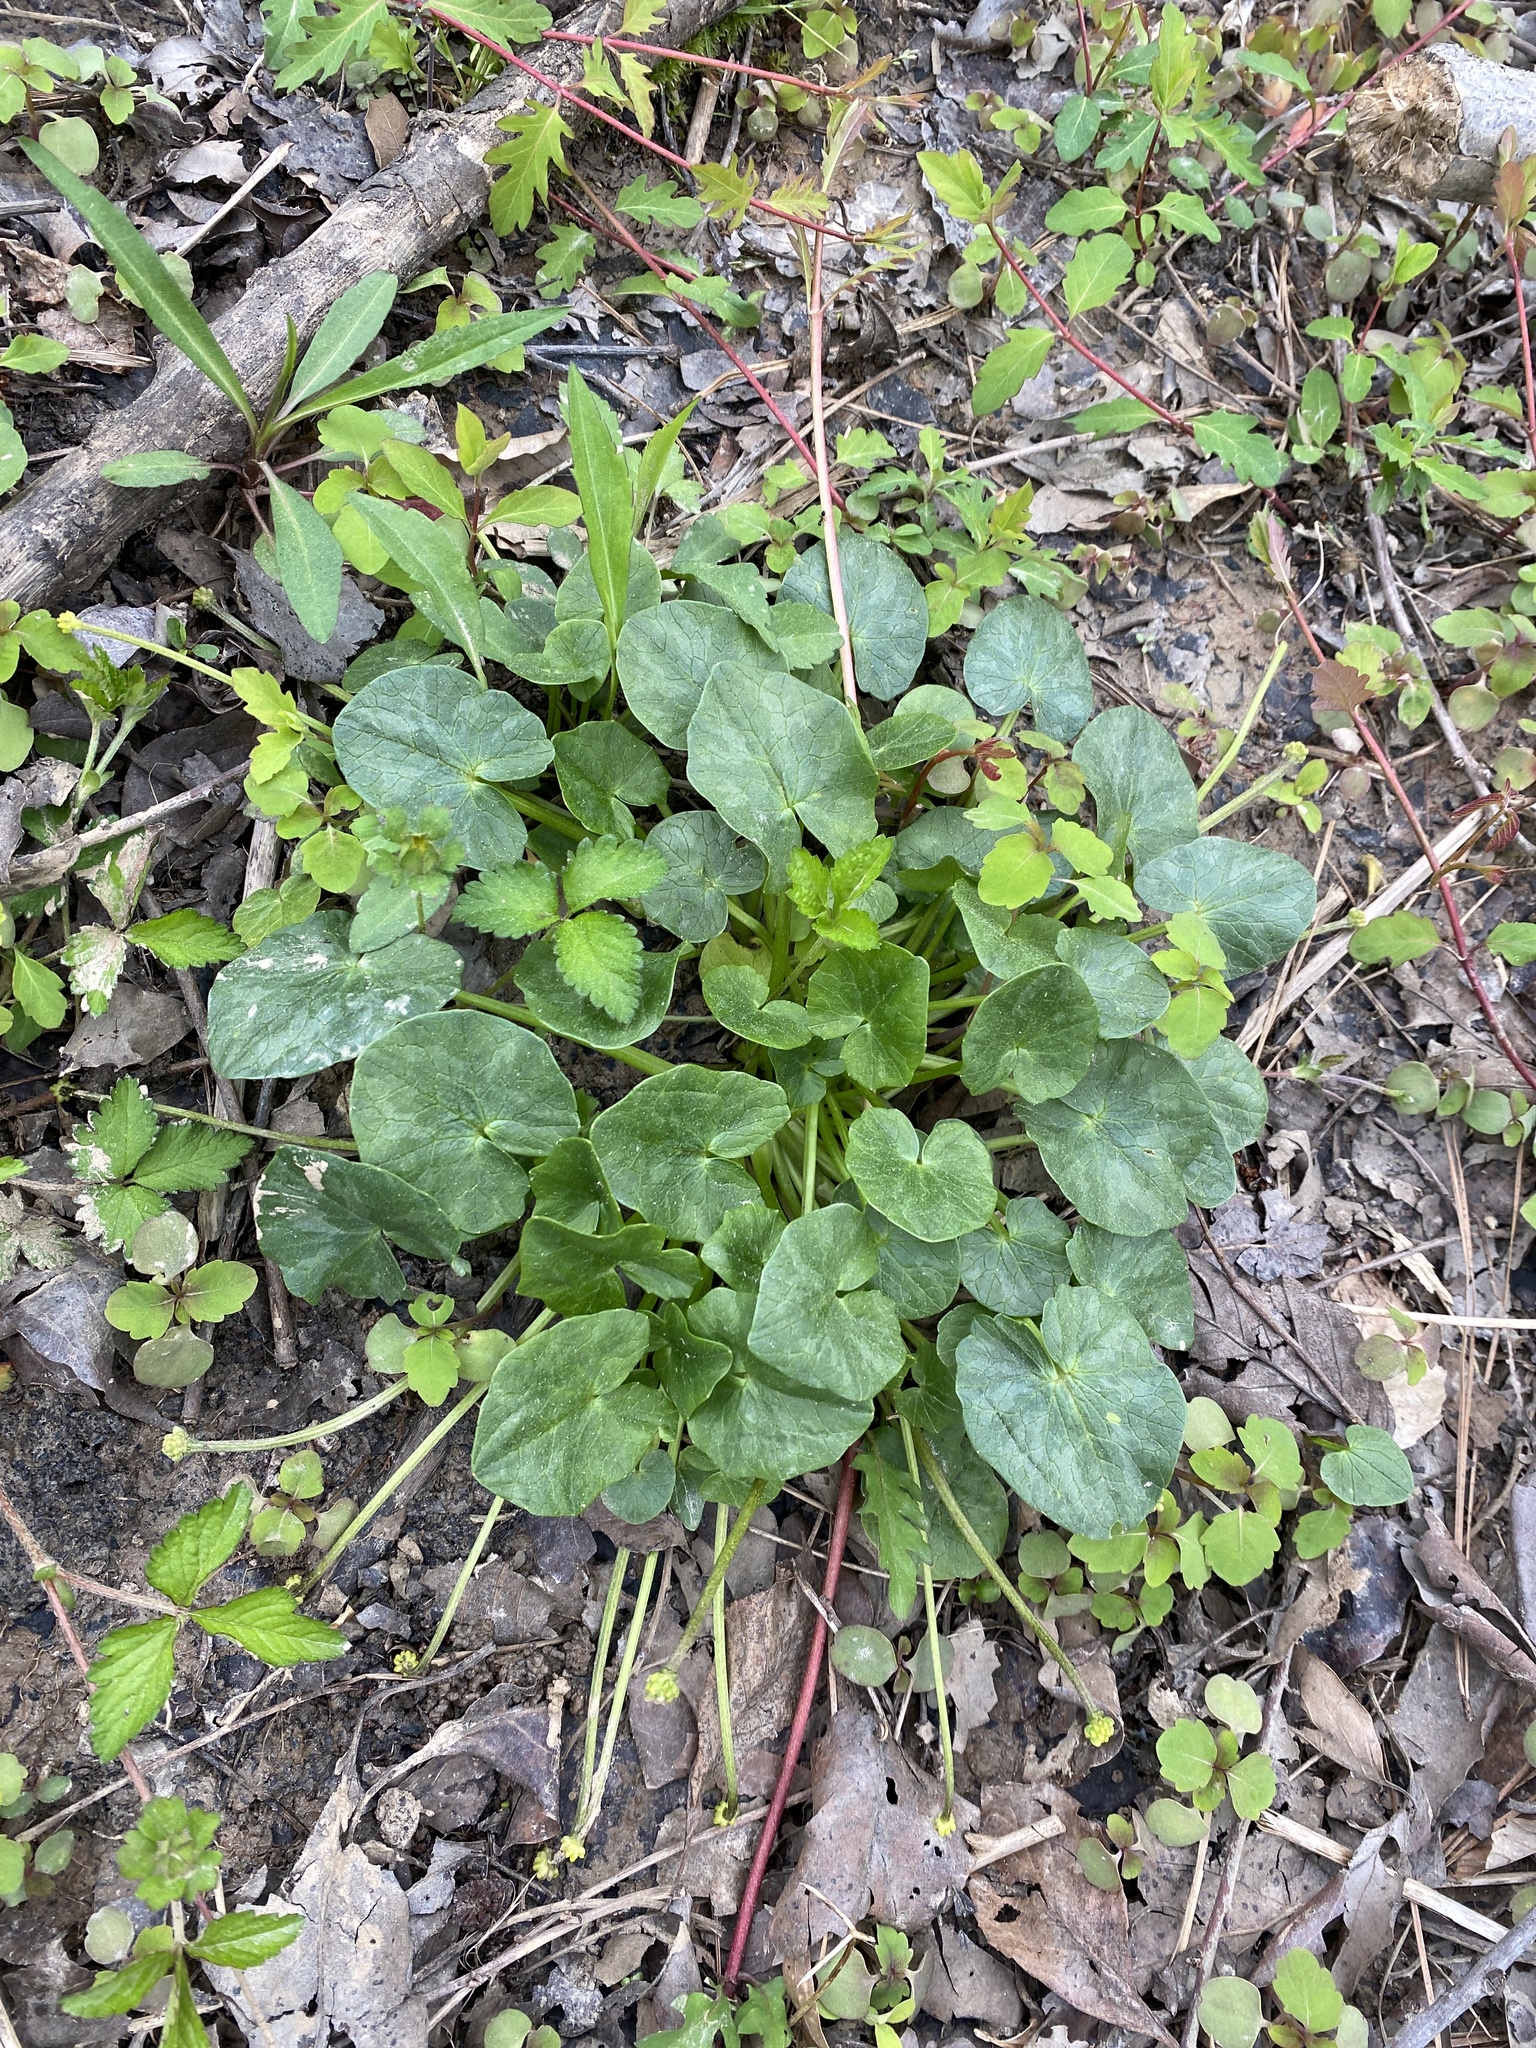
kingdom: Plantae
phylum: Tracheophyta
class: Magnoliopsida
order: Ranunculales
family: Ranunculaceae
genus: Ficaria
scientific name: Ficaria verna
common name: Lesser celandine
